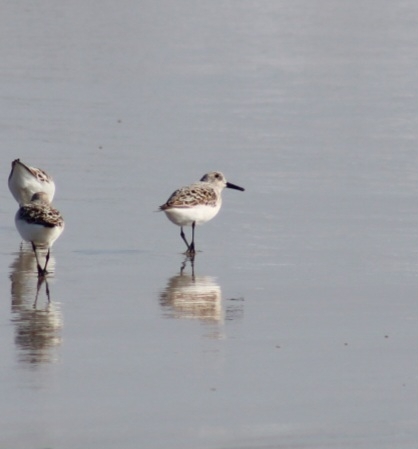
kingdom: Animalia
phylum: Chordata
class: Aves
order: Charadriiformes
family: Scolopacidae
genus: Calidris
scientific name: Calidris alba
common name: Sanderling
